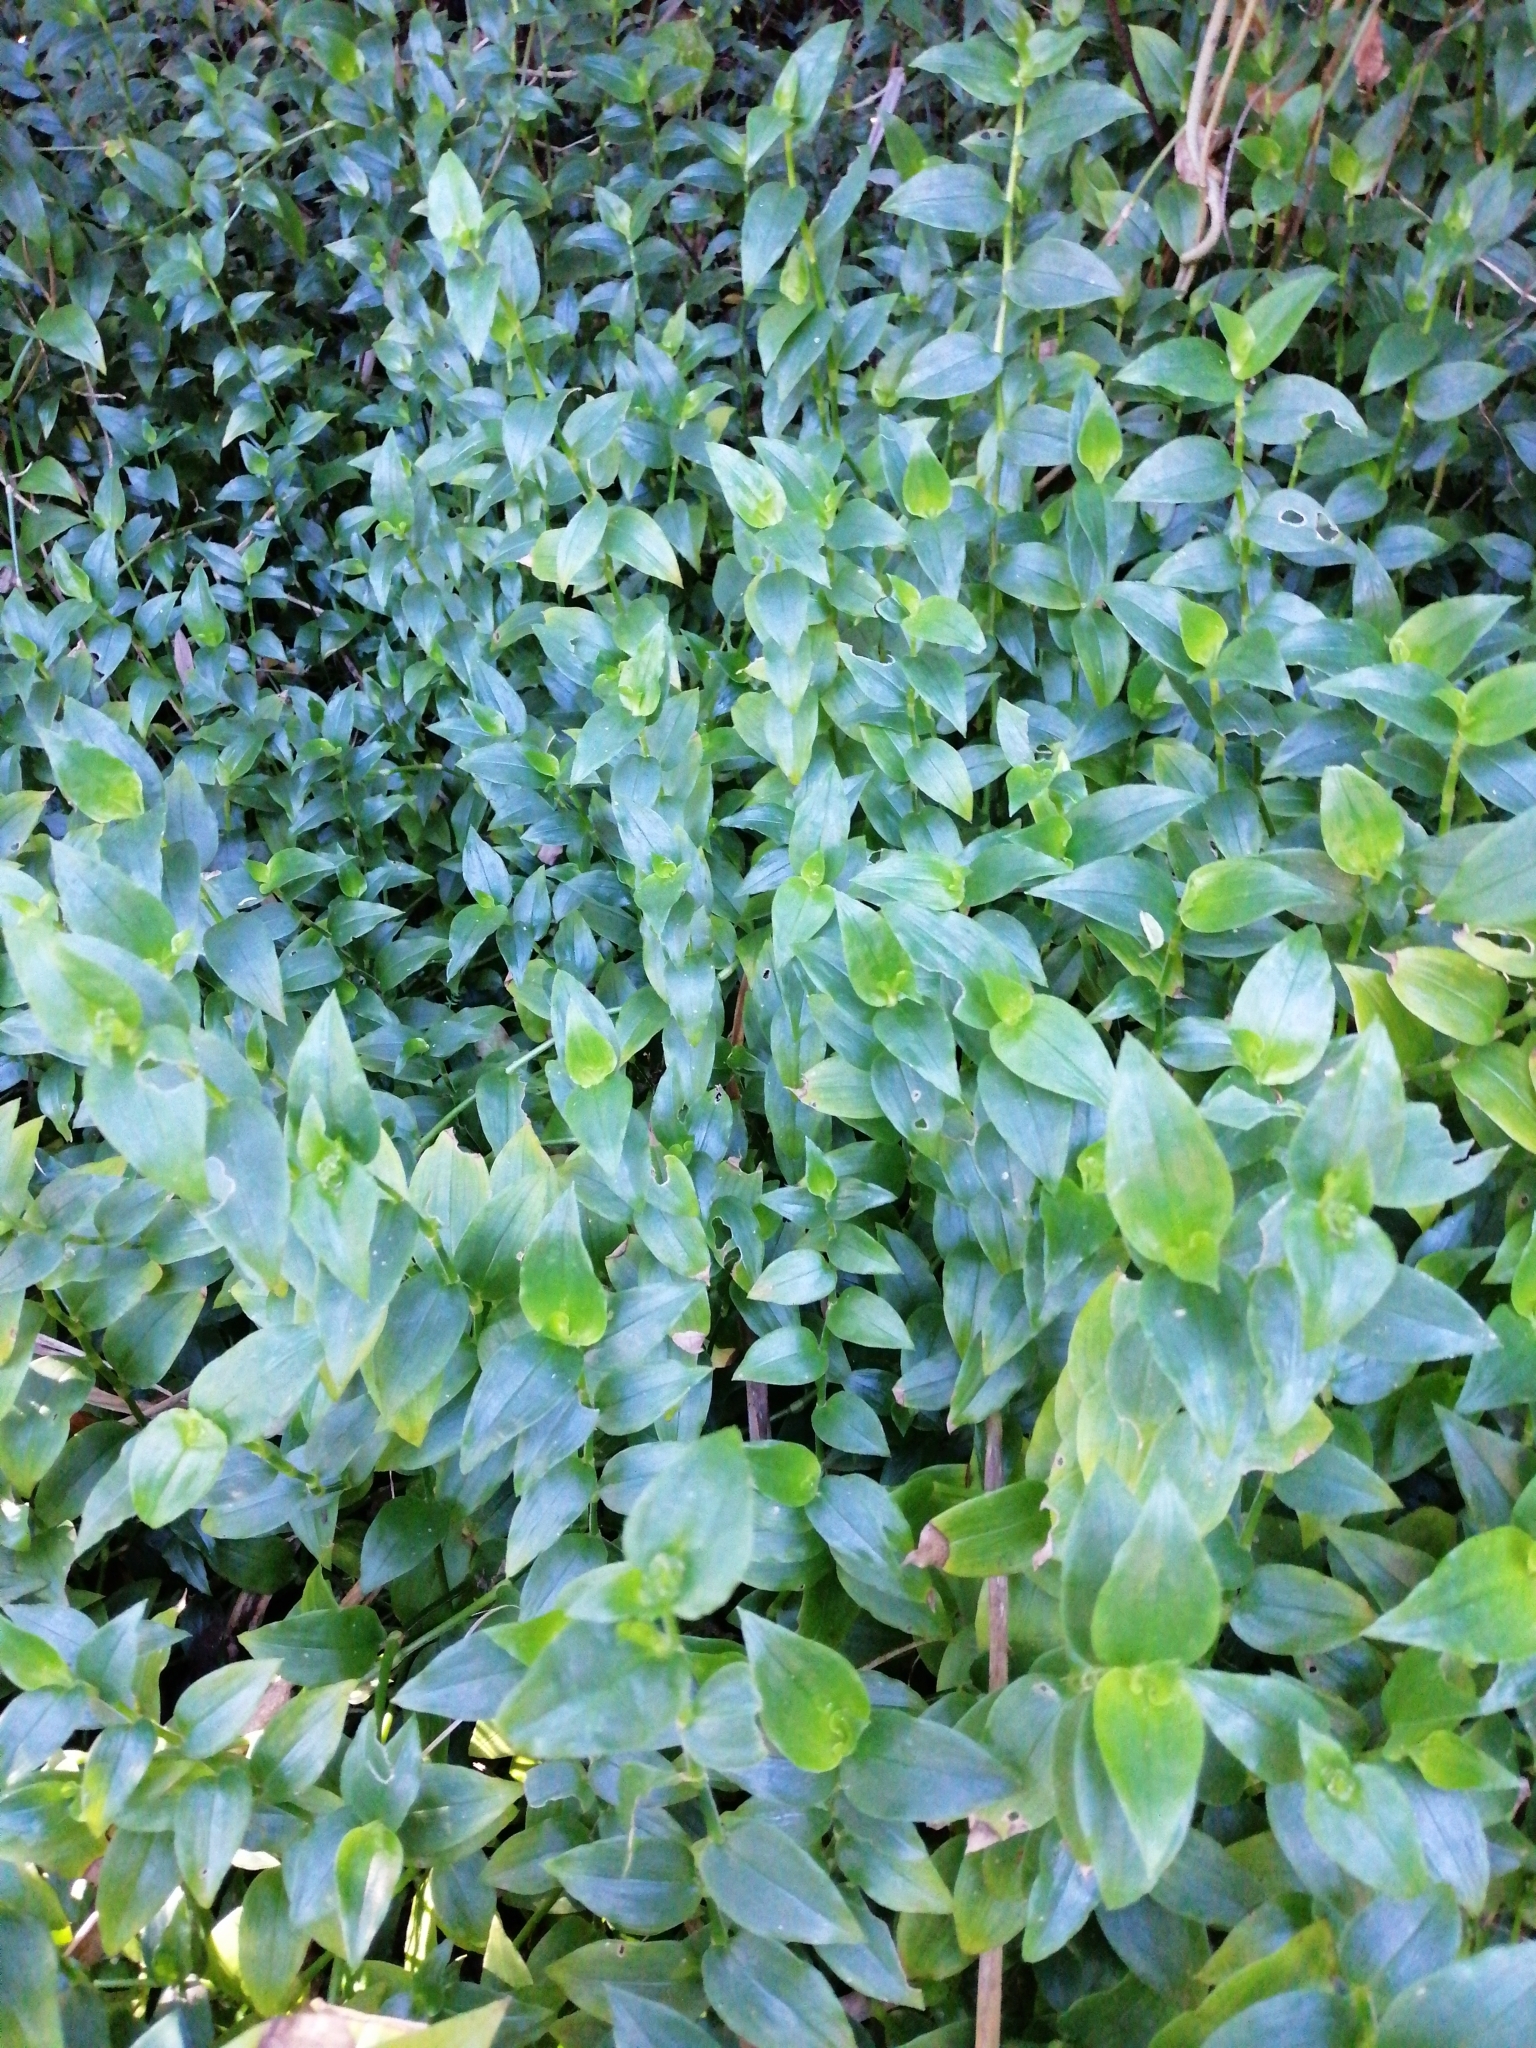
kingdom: Plantae
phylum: Tracheophyta
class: Liliopsida
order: Commelinales
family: Commelinaceae
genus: Tradescantia
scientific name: Tradescantia fluminensis
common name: Wandering-jew
